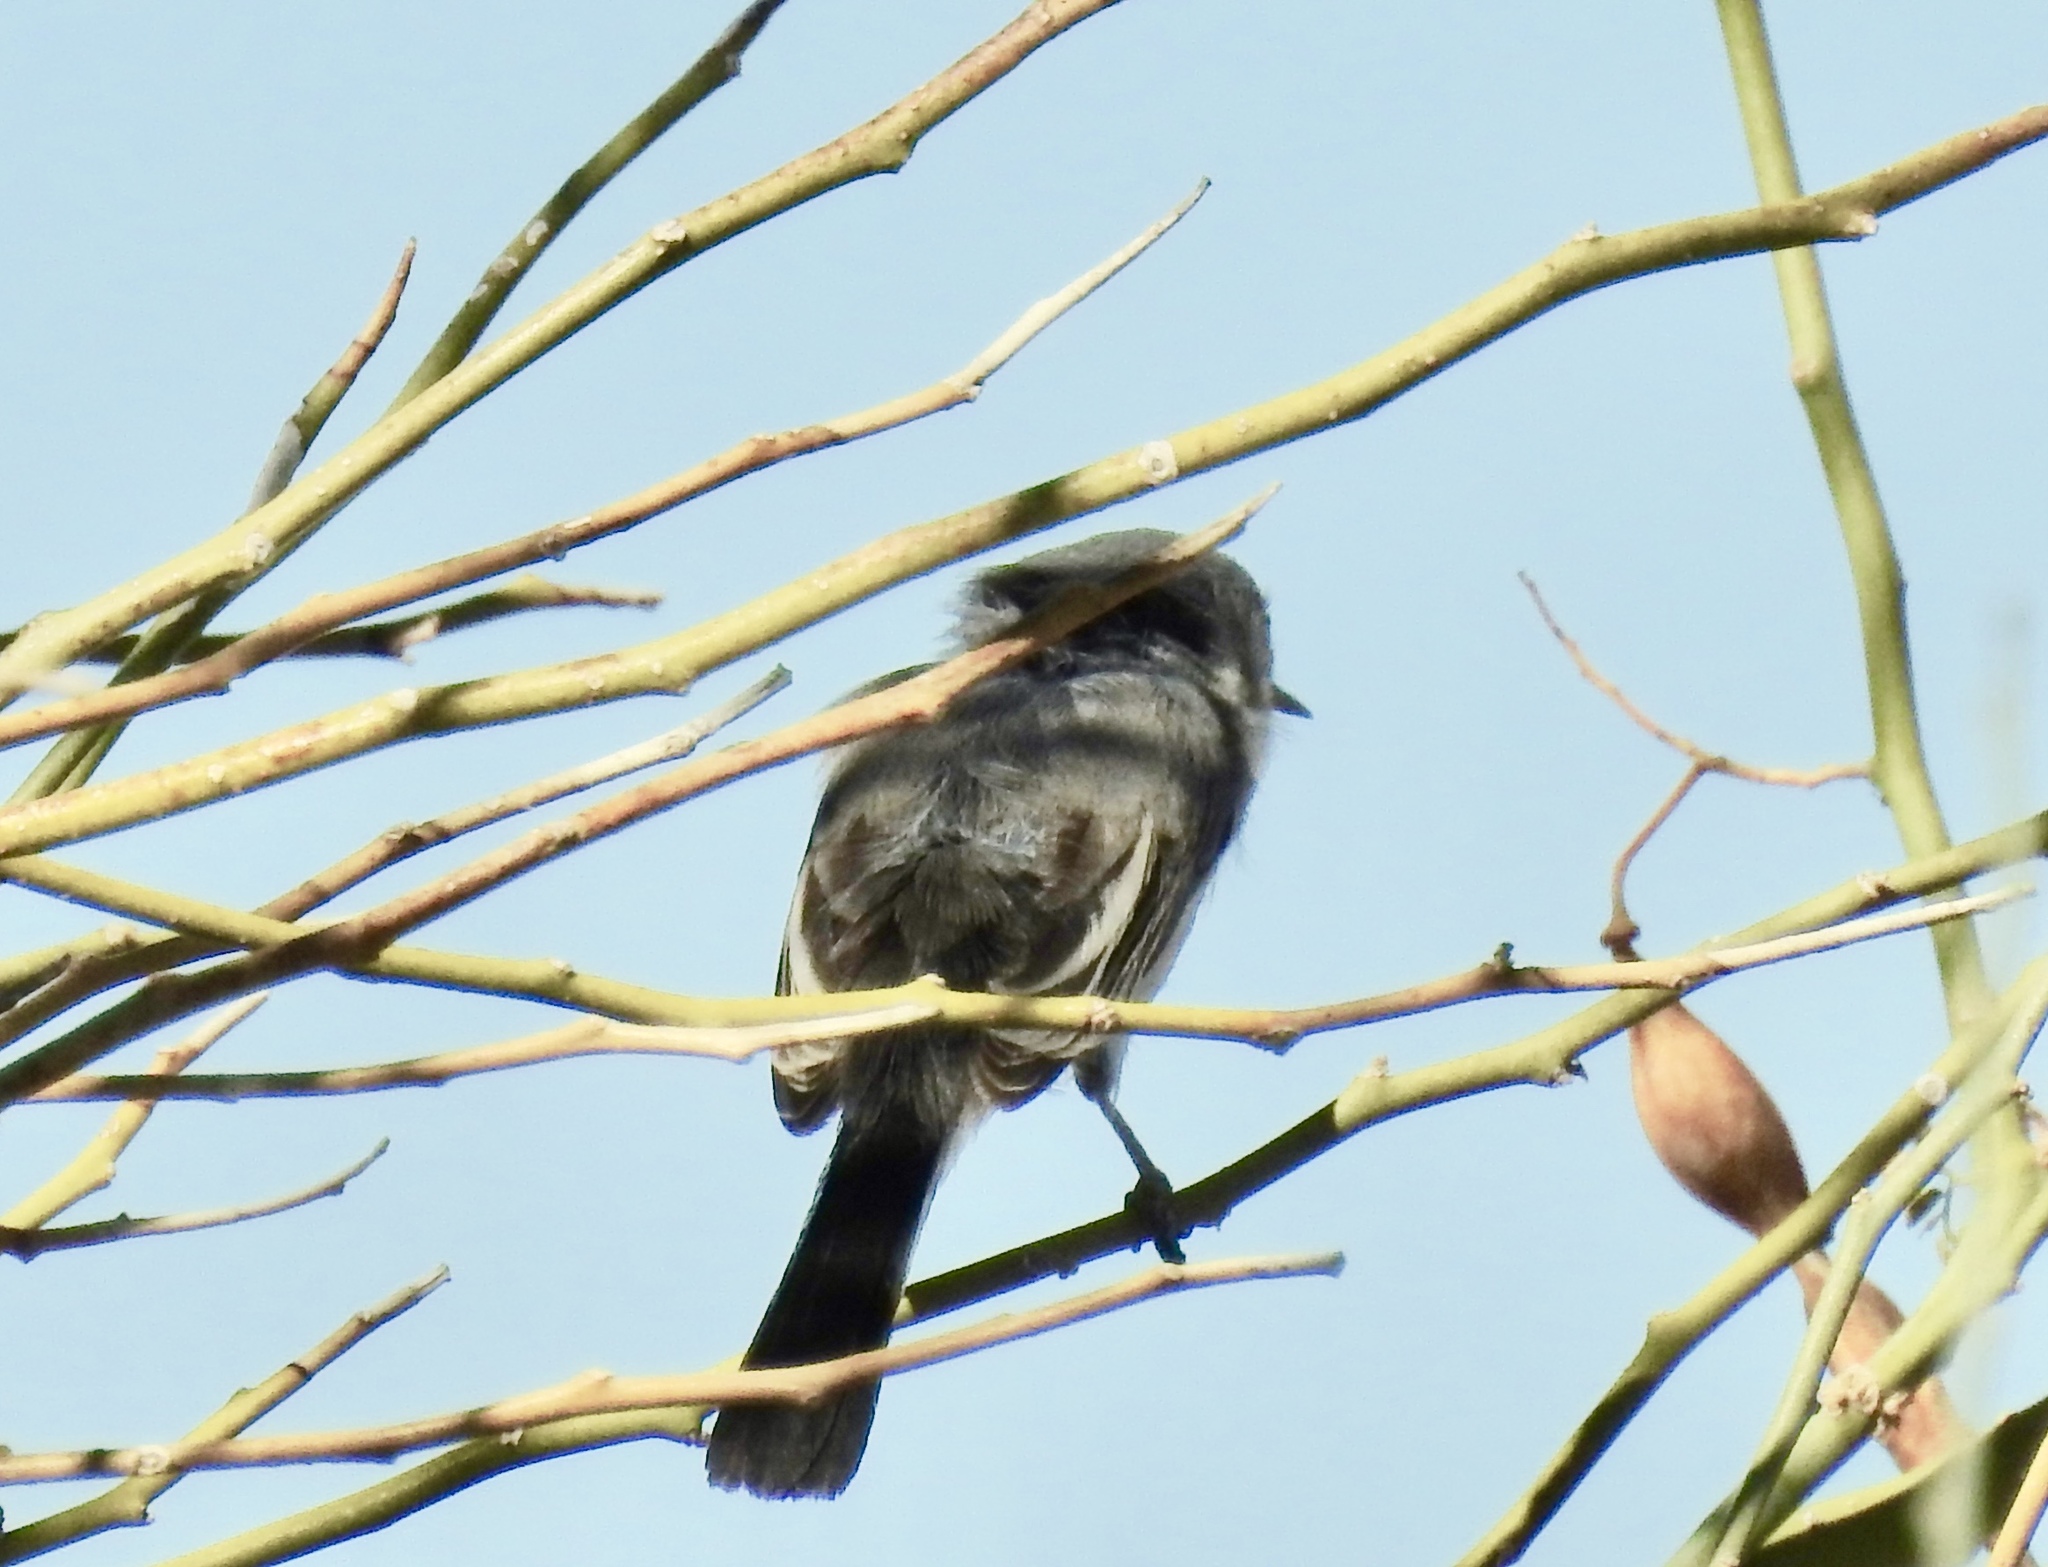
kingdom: Animalia
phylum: Chordata
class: Aves
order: Passeriformes
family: Polioptilidae
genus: Polioptila
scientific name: Polioptila caerulea
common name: Blue-gray gnatcatcher
